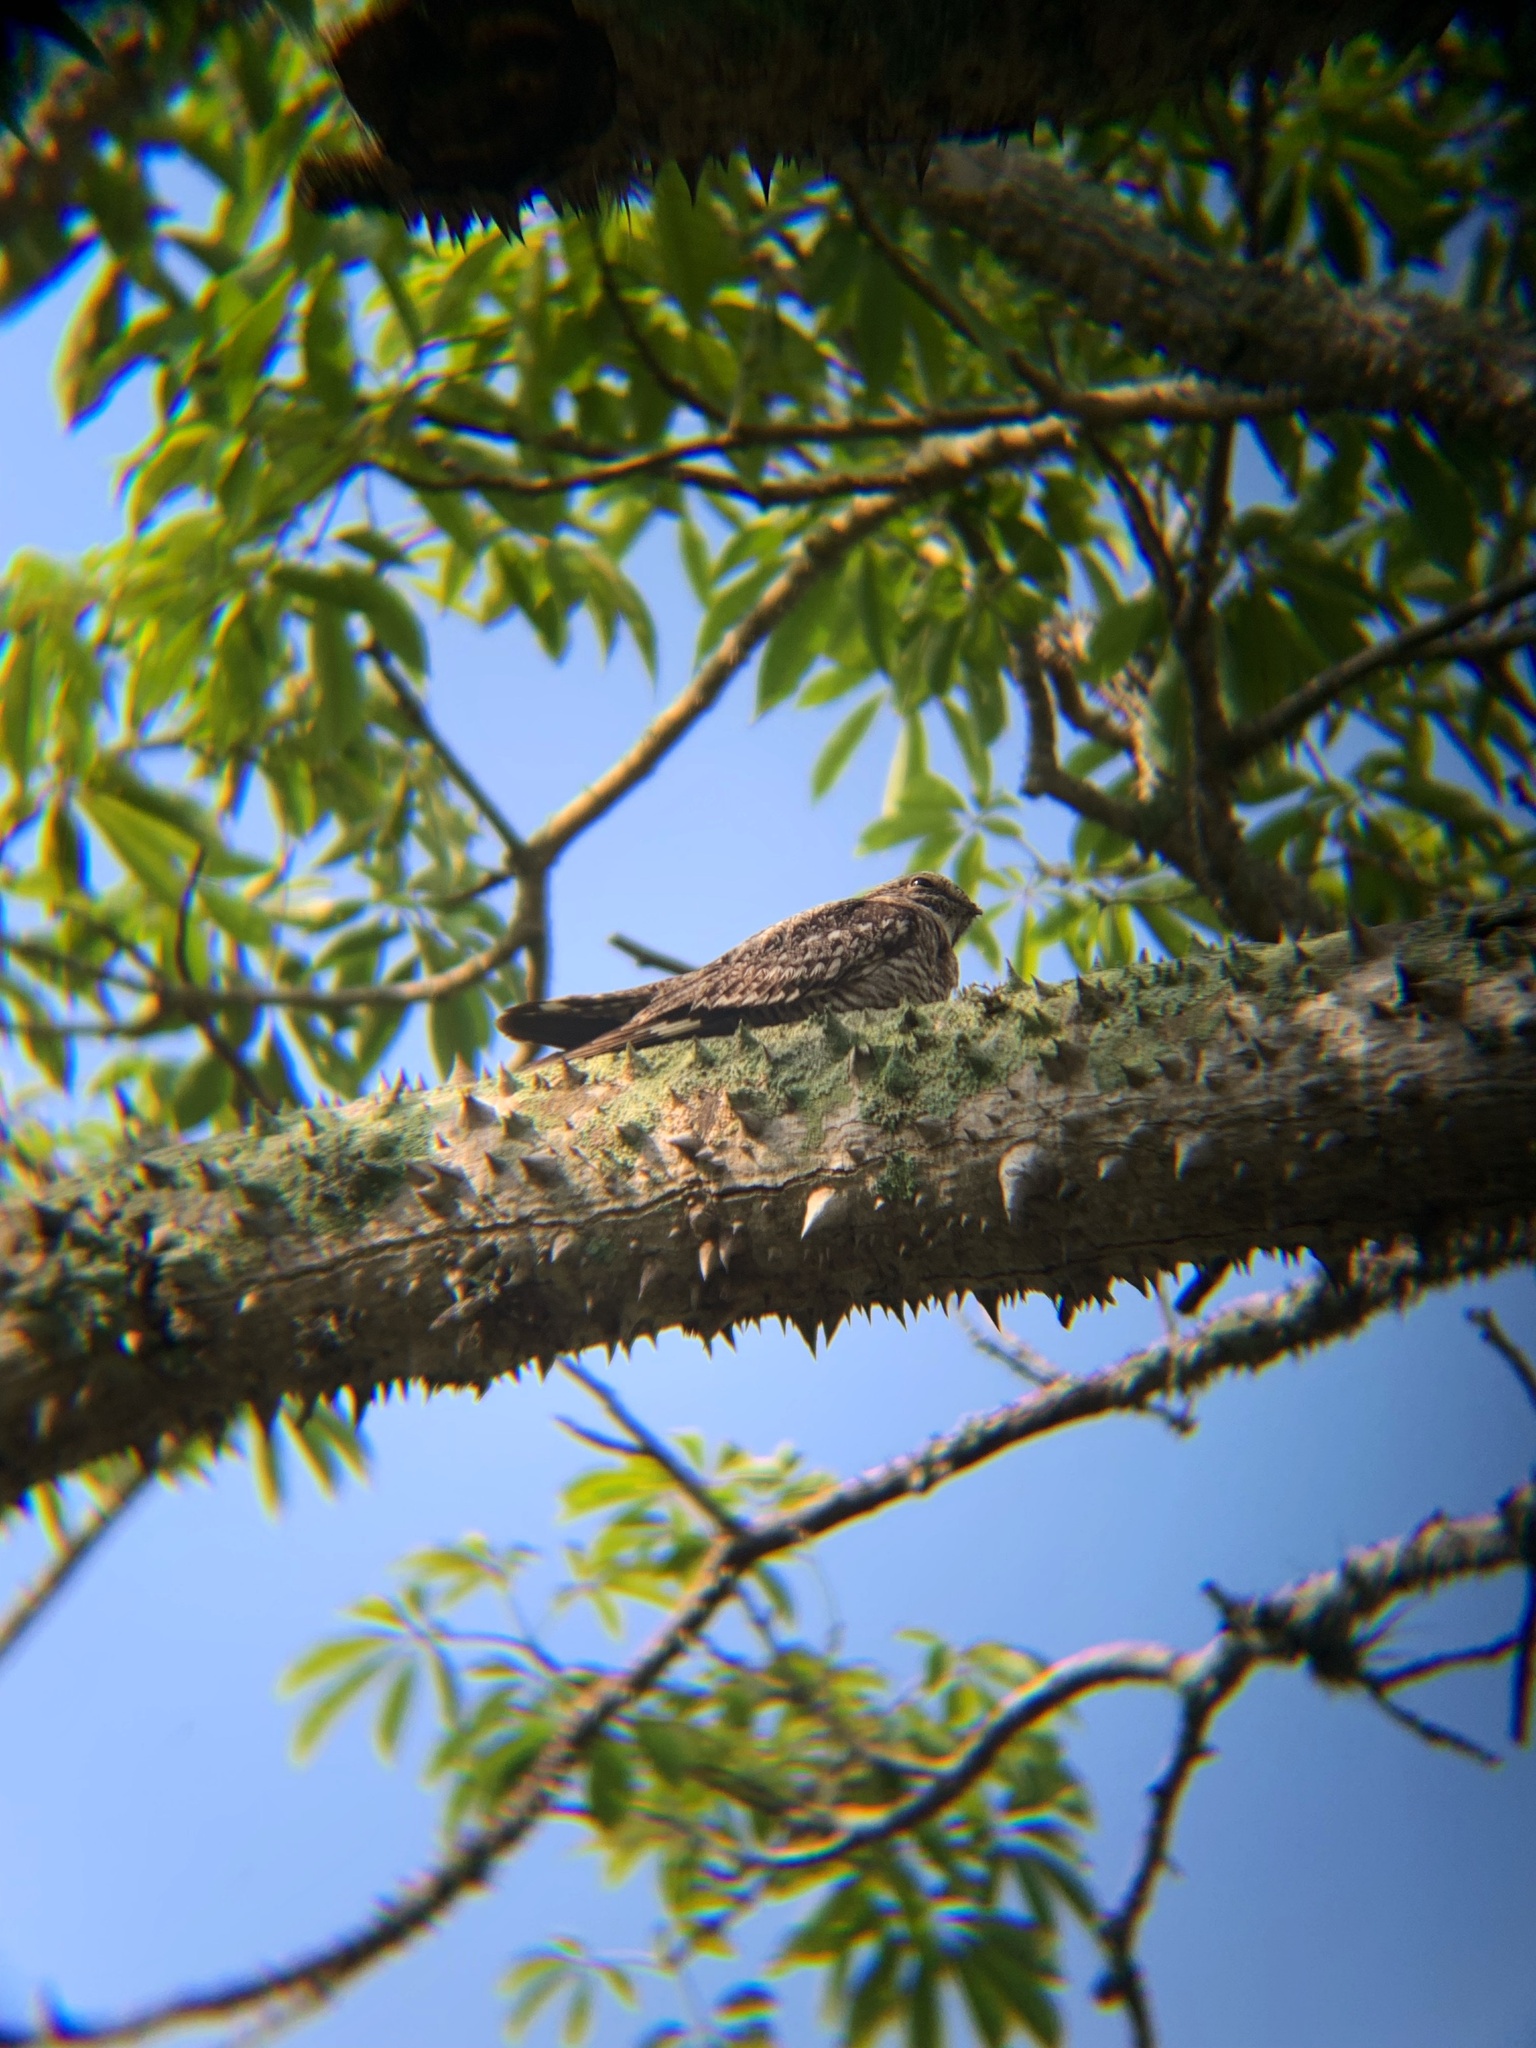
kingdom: Animalia
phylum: Chordata
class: Aves
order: Caprimulgiformes
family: Caprimulgidae
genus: Chordeiles
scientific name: Chordeiles acutipennis
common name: Lesser nighthawk
